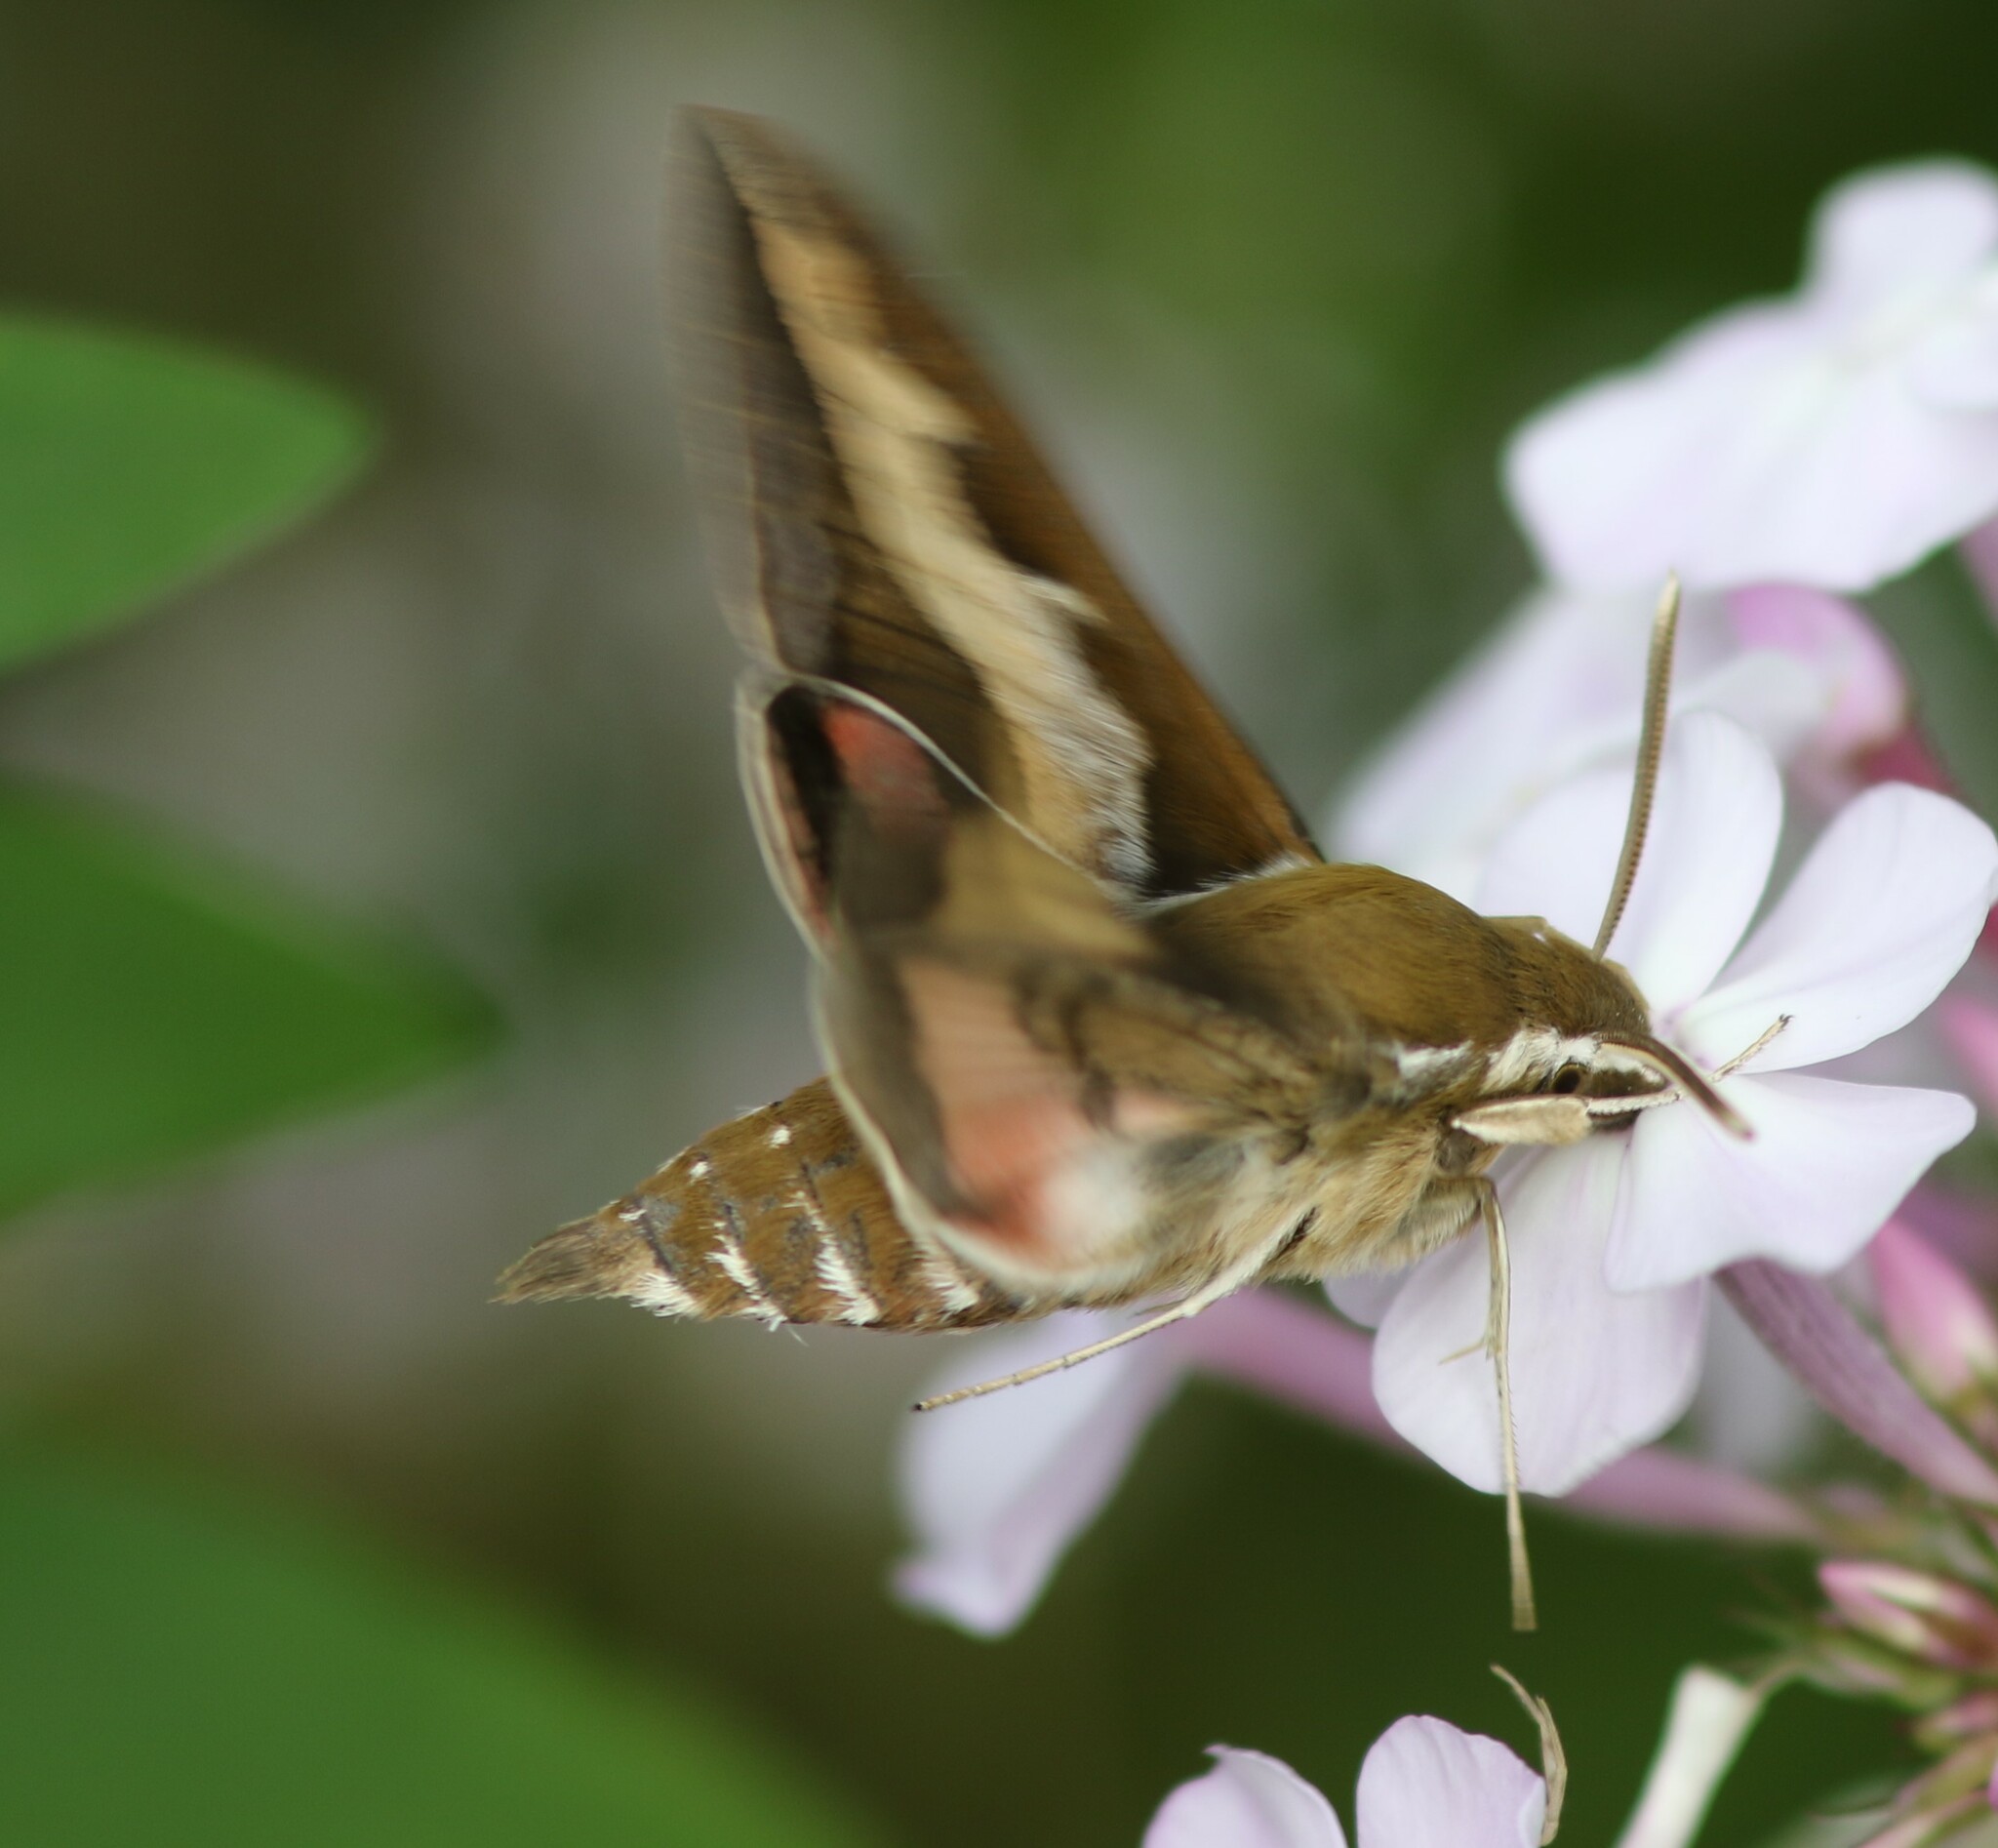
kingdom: Animalia
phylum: Arthropoda
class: Insecta
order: Lepidoptera
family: Sphingidae
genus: Hyles
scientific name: Hyles gallii
